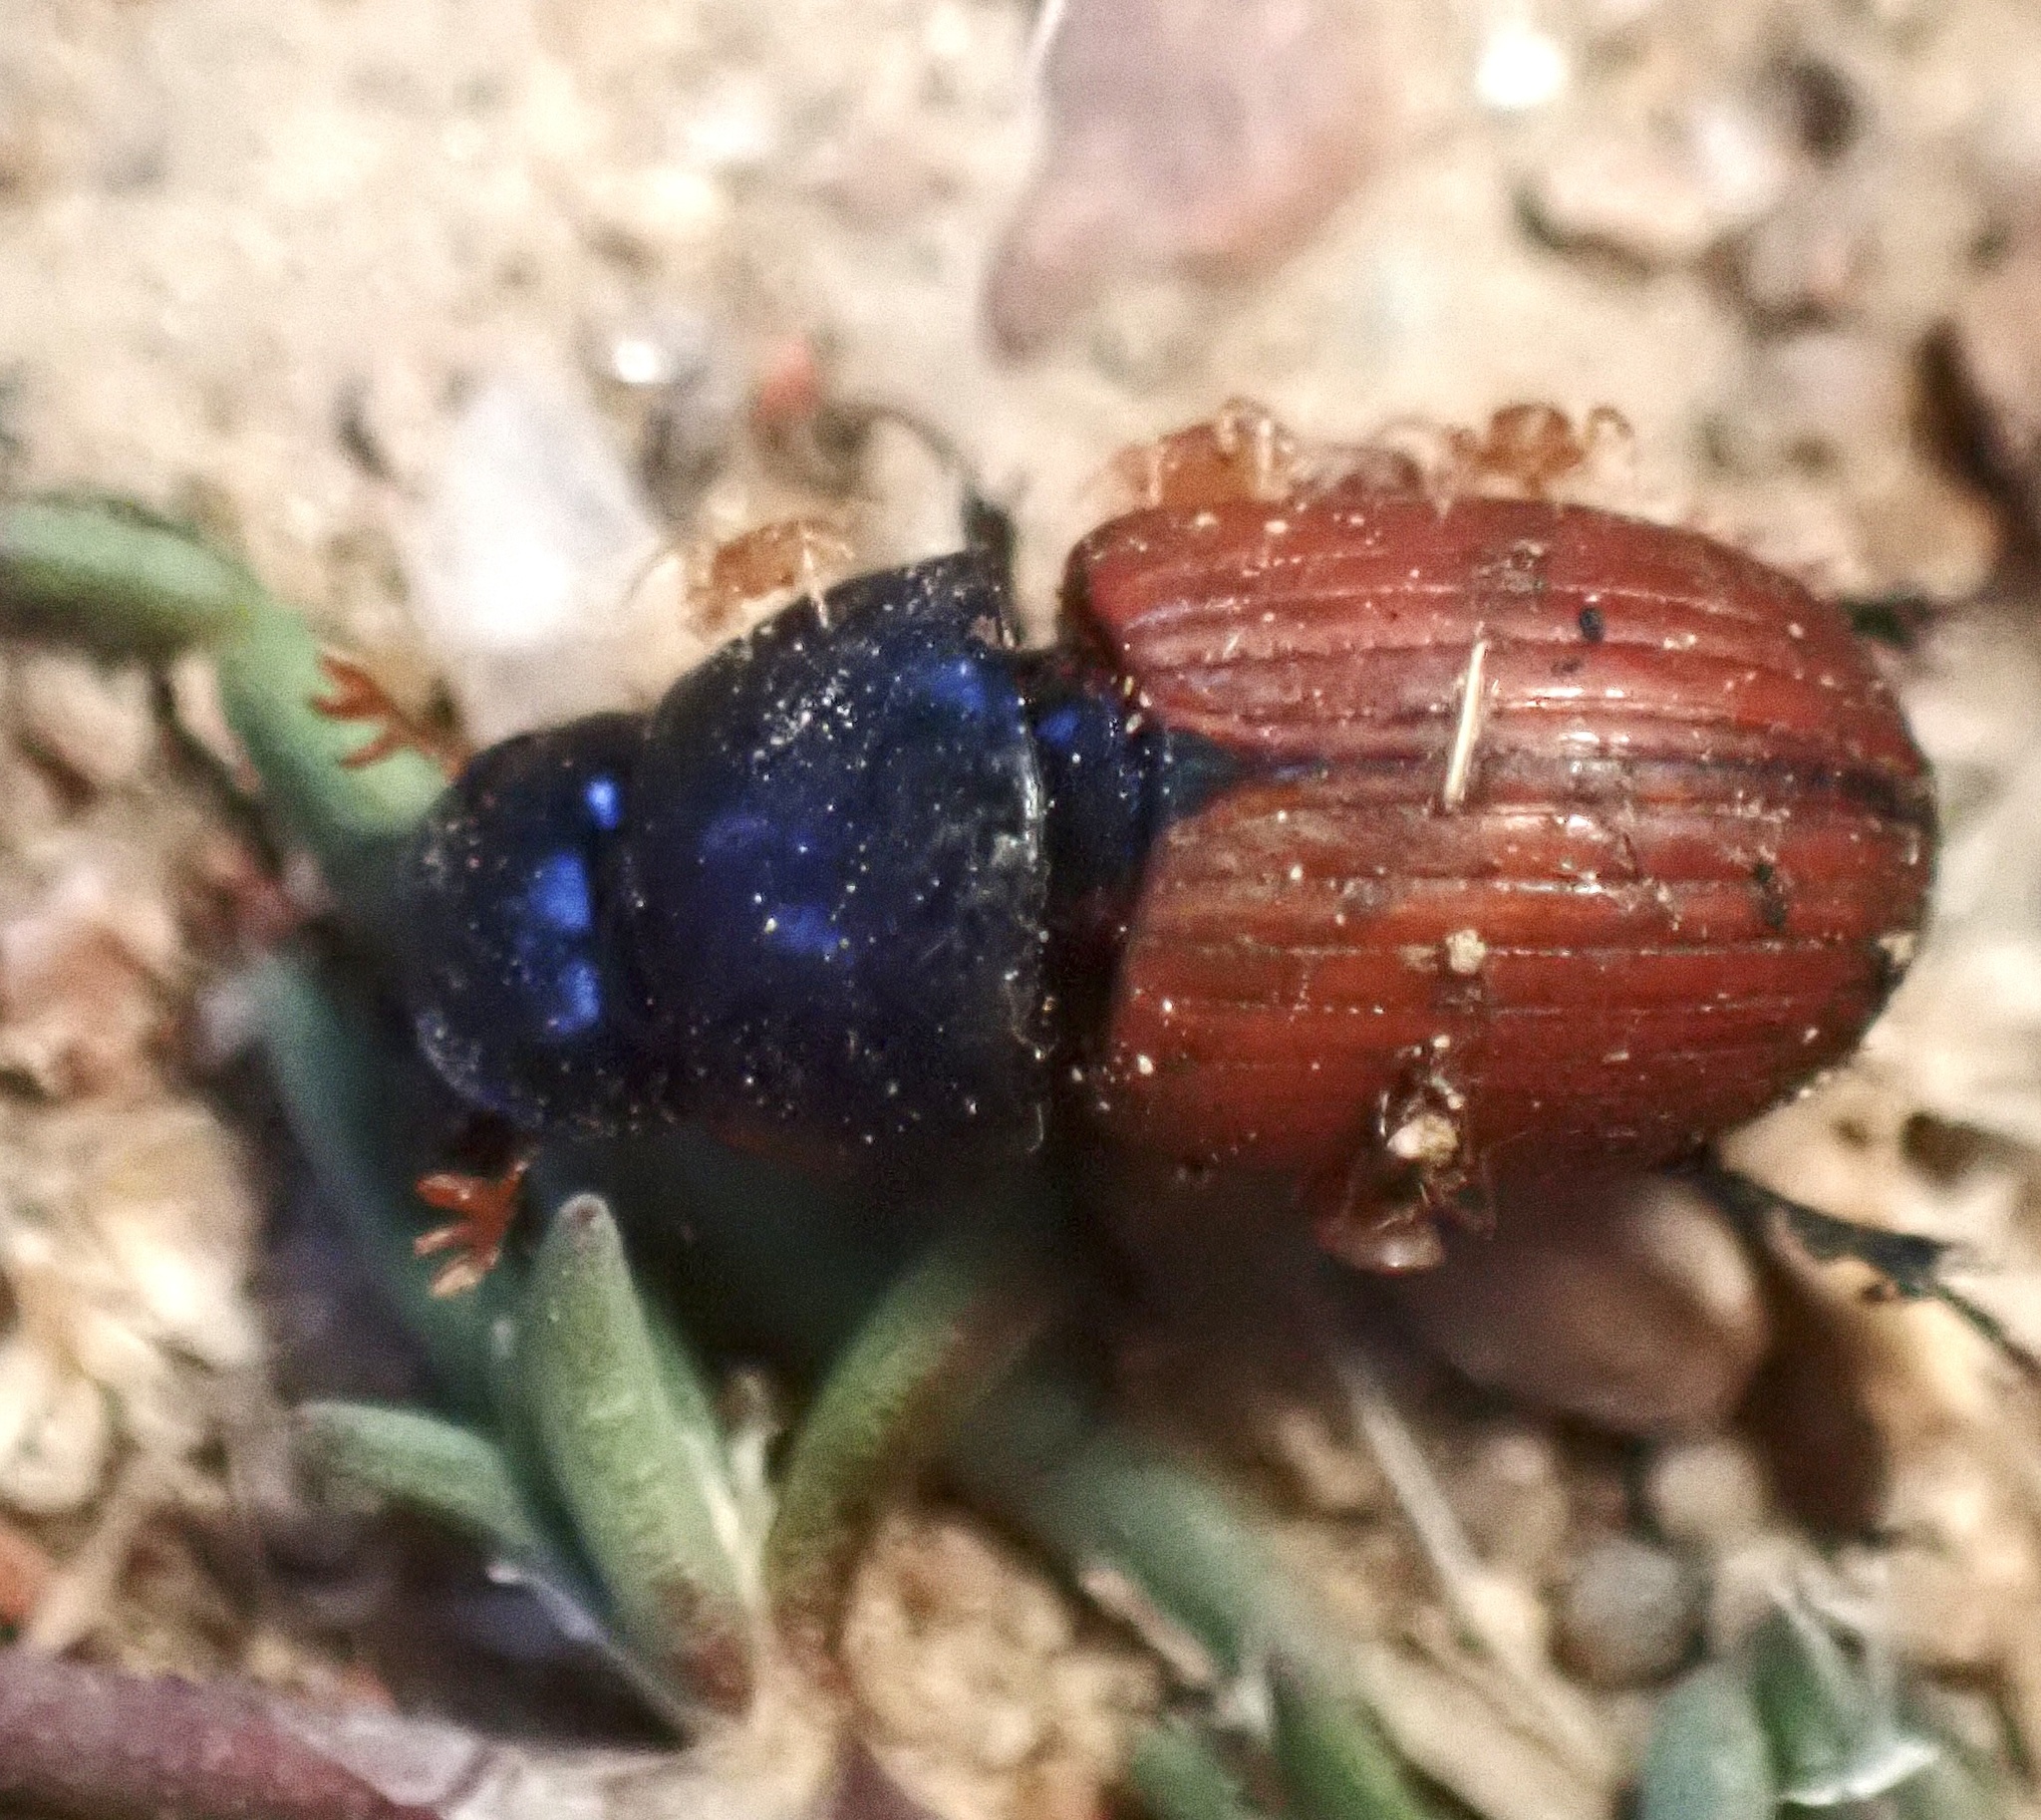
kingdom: Animalia
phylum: Arthropoda
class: Insecta
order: Coleoptera
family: Scarabaeidae
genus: Aphodius
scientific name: Aphodius fimetarius
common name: Common dung beetle
